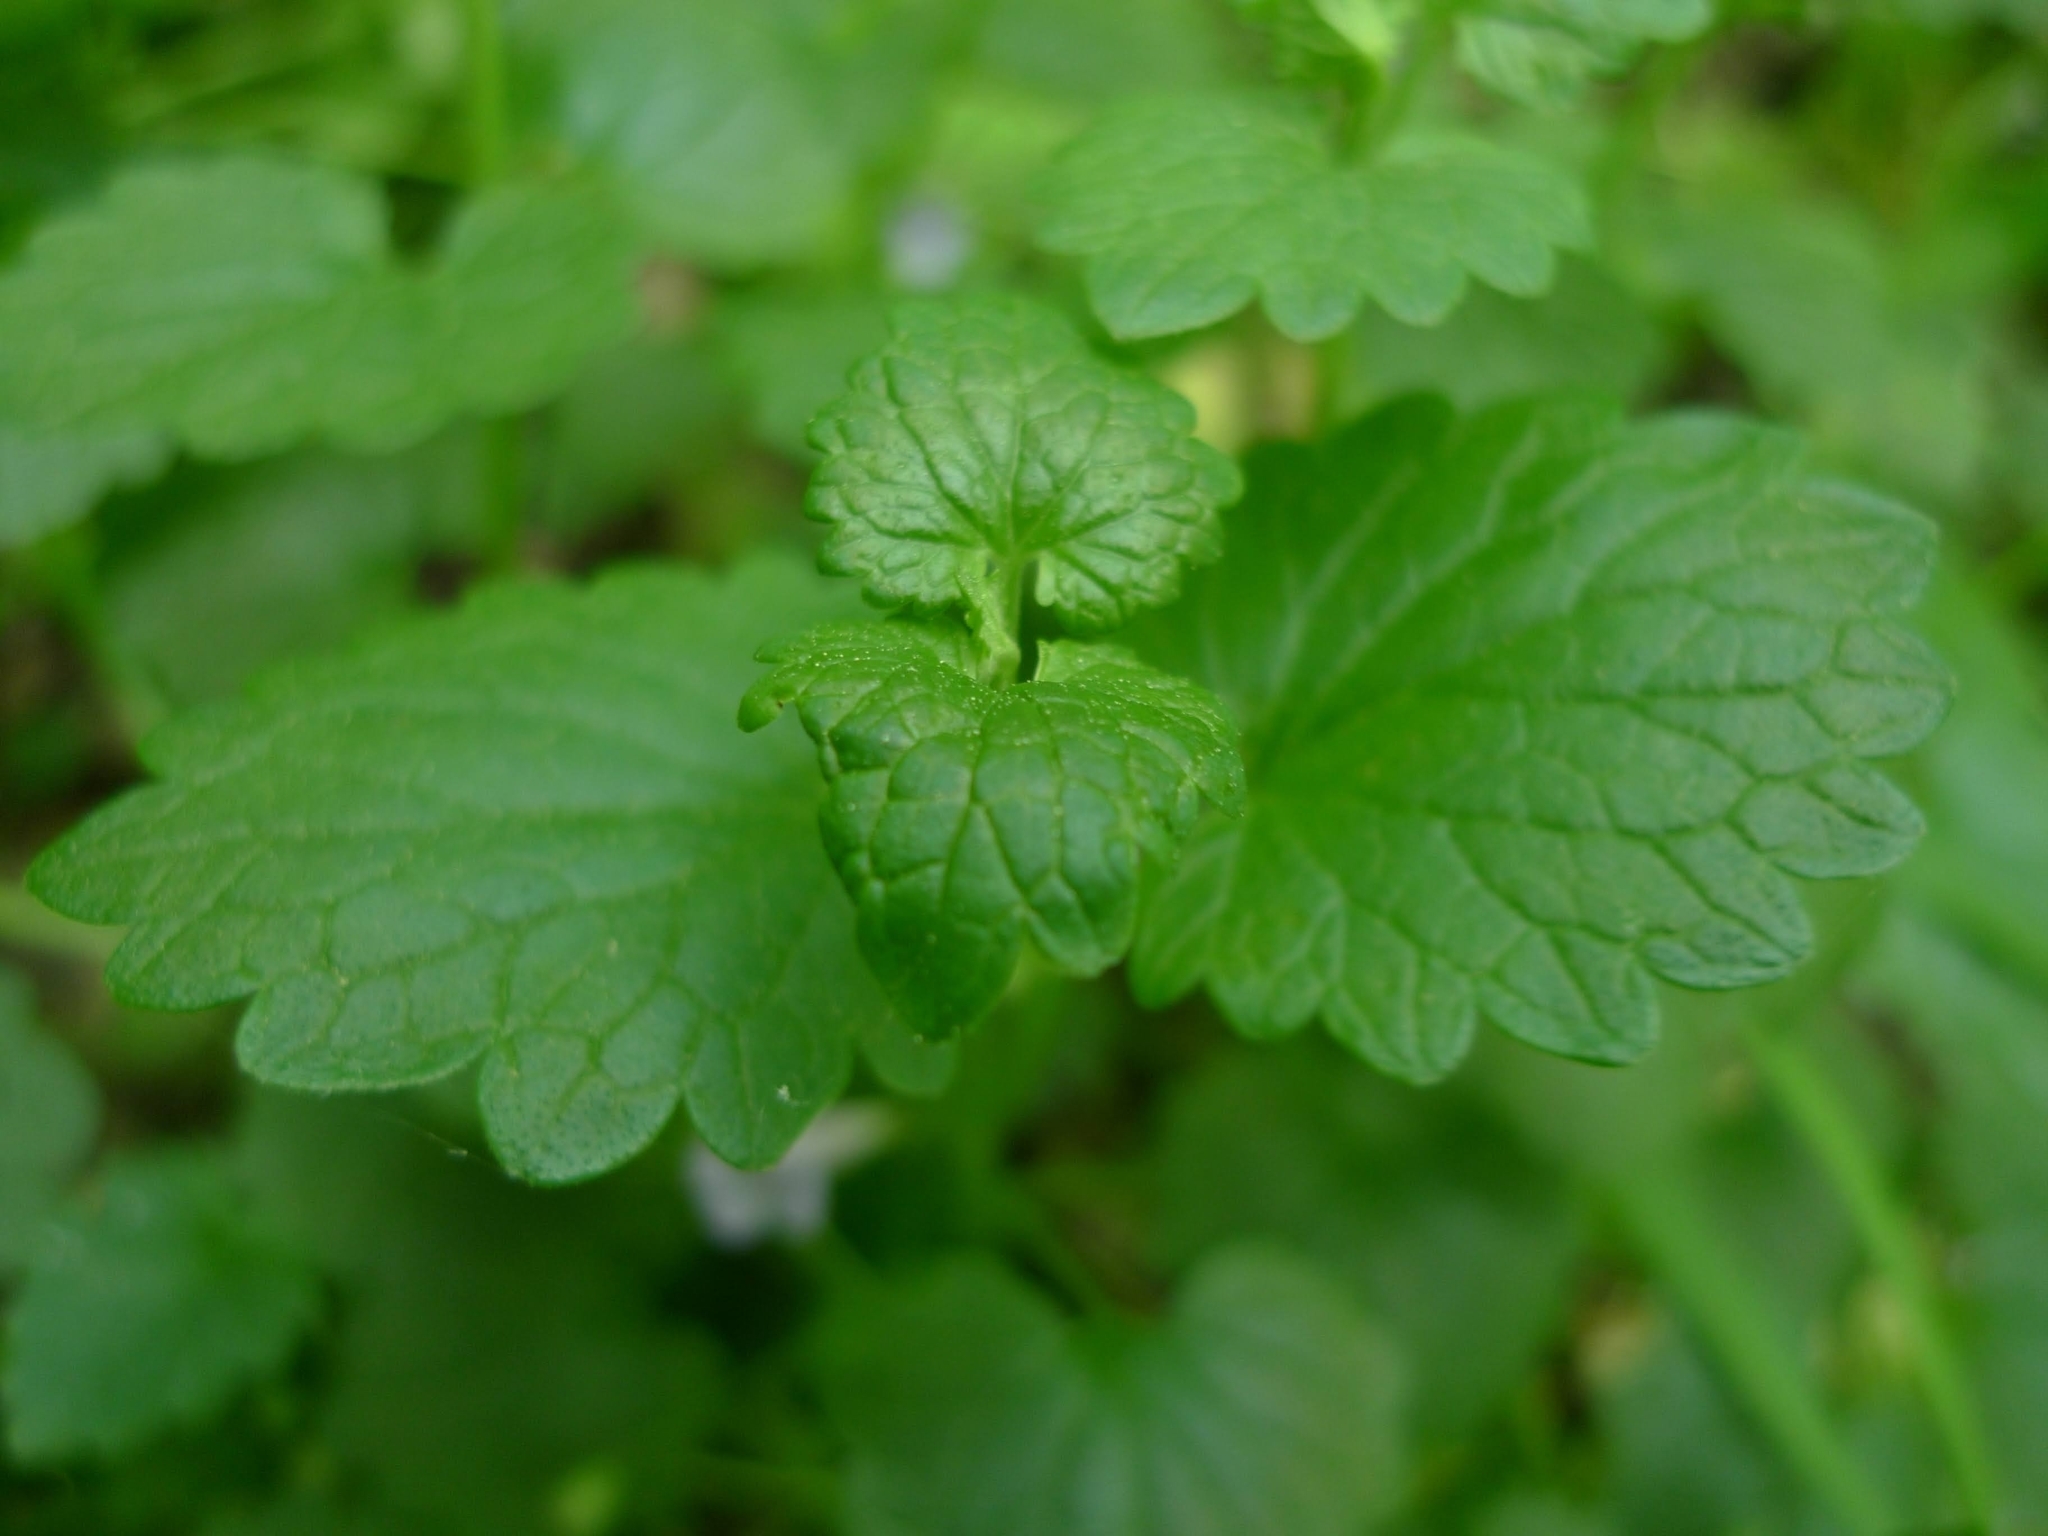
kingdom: Plantae
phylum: Tracheophyta
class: Magnoliopsida
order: Lamiales
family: Lamiaceae
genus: Glechoma
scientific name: Glechoma hederacea
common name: Ground ivy
